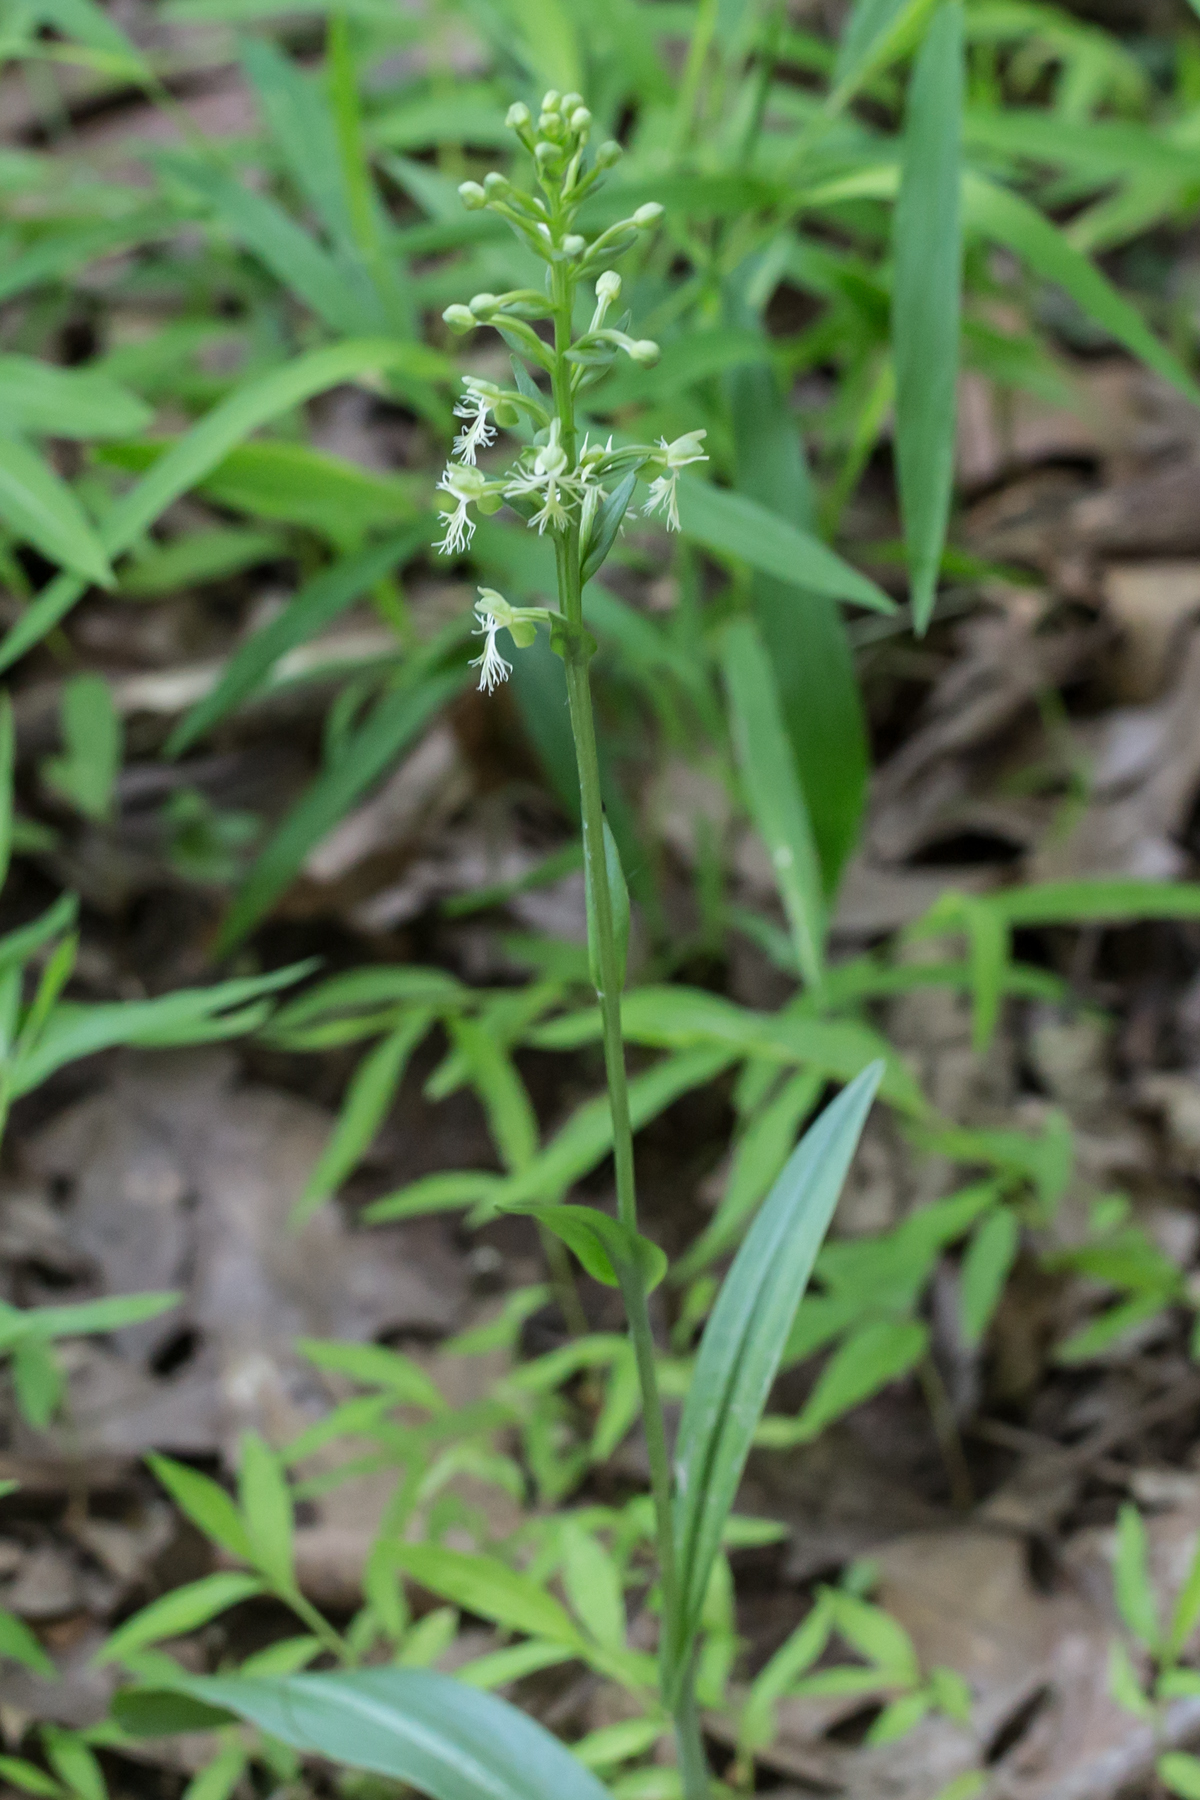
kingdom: Plantae
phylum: Tracheophyta
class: Liliopsida
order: Asparagales
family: Orchidaceae
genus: Platanthera
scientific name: Platanthera lacera
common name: Green fringed orchid
